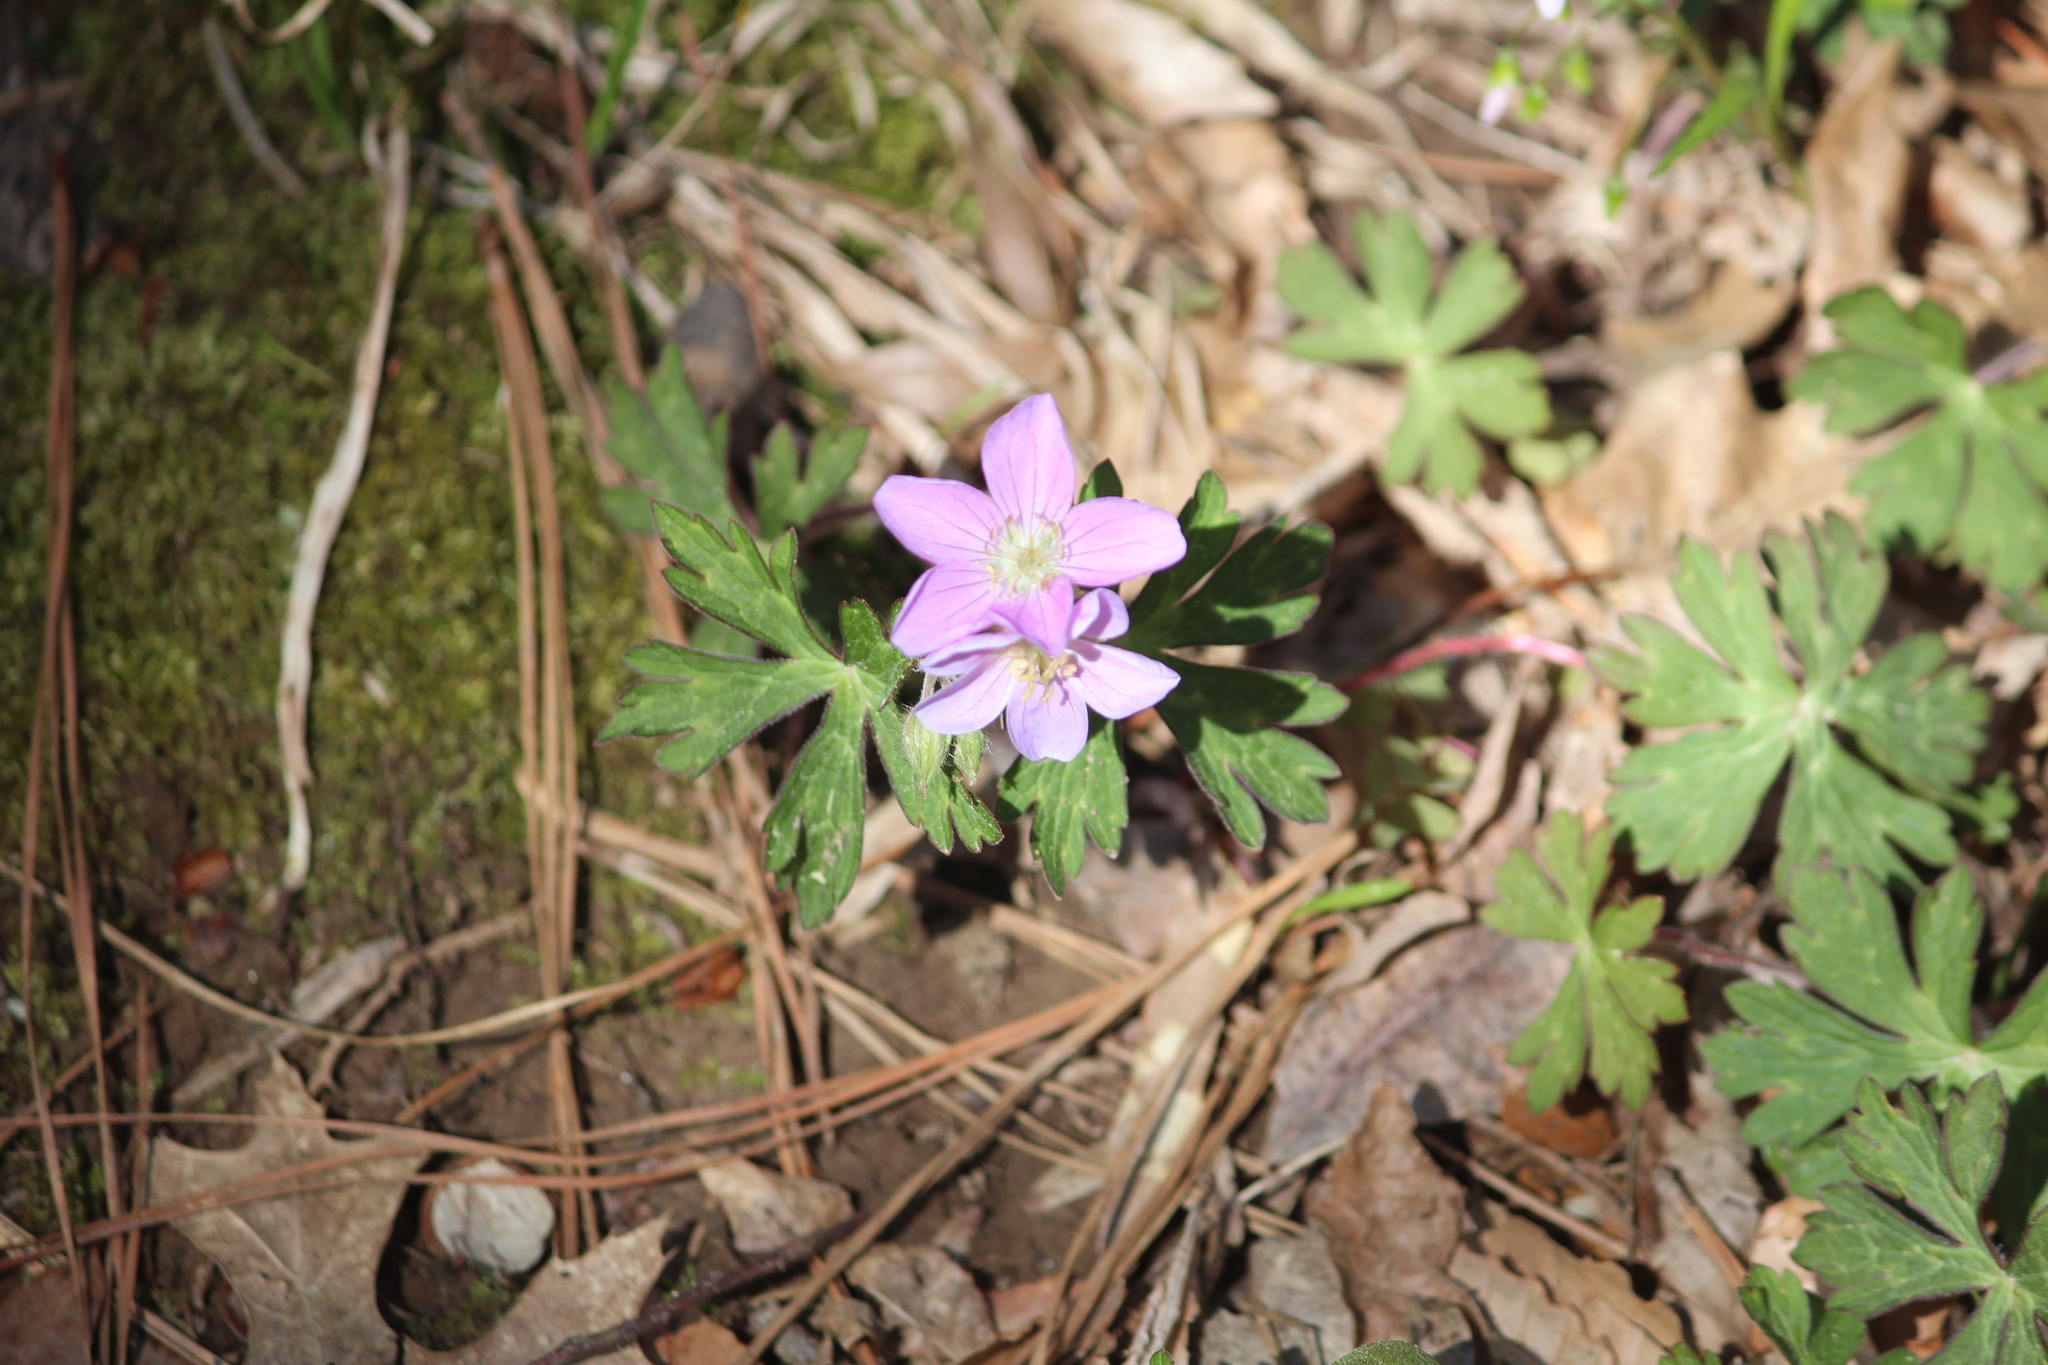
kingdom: Plantae
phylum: Tracheophyta
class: Magnoliopsida
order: Geraniales
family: Geraniaceae
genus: Geranium
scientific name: Geranium maculatum
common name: Spotted geranium
